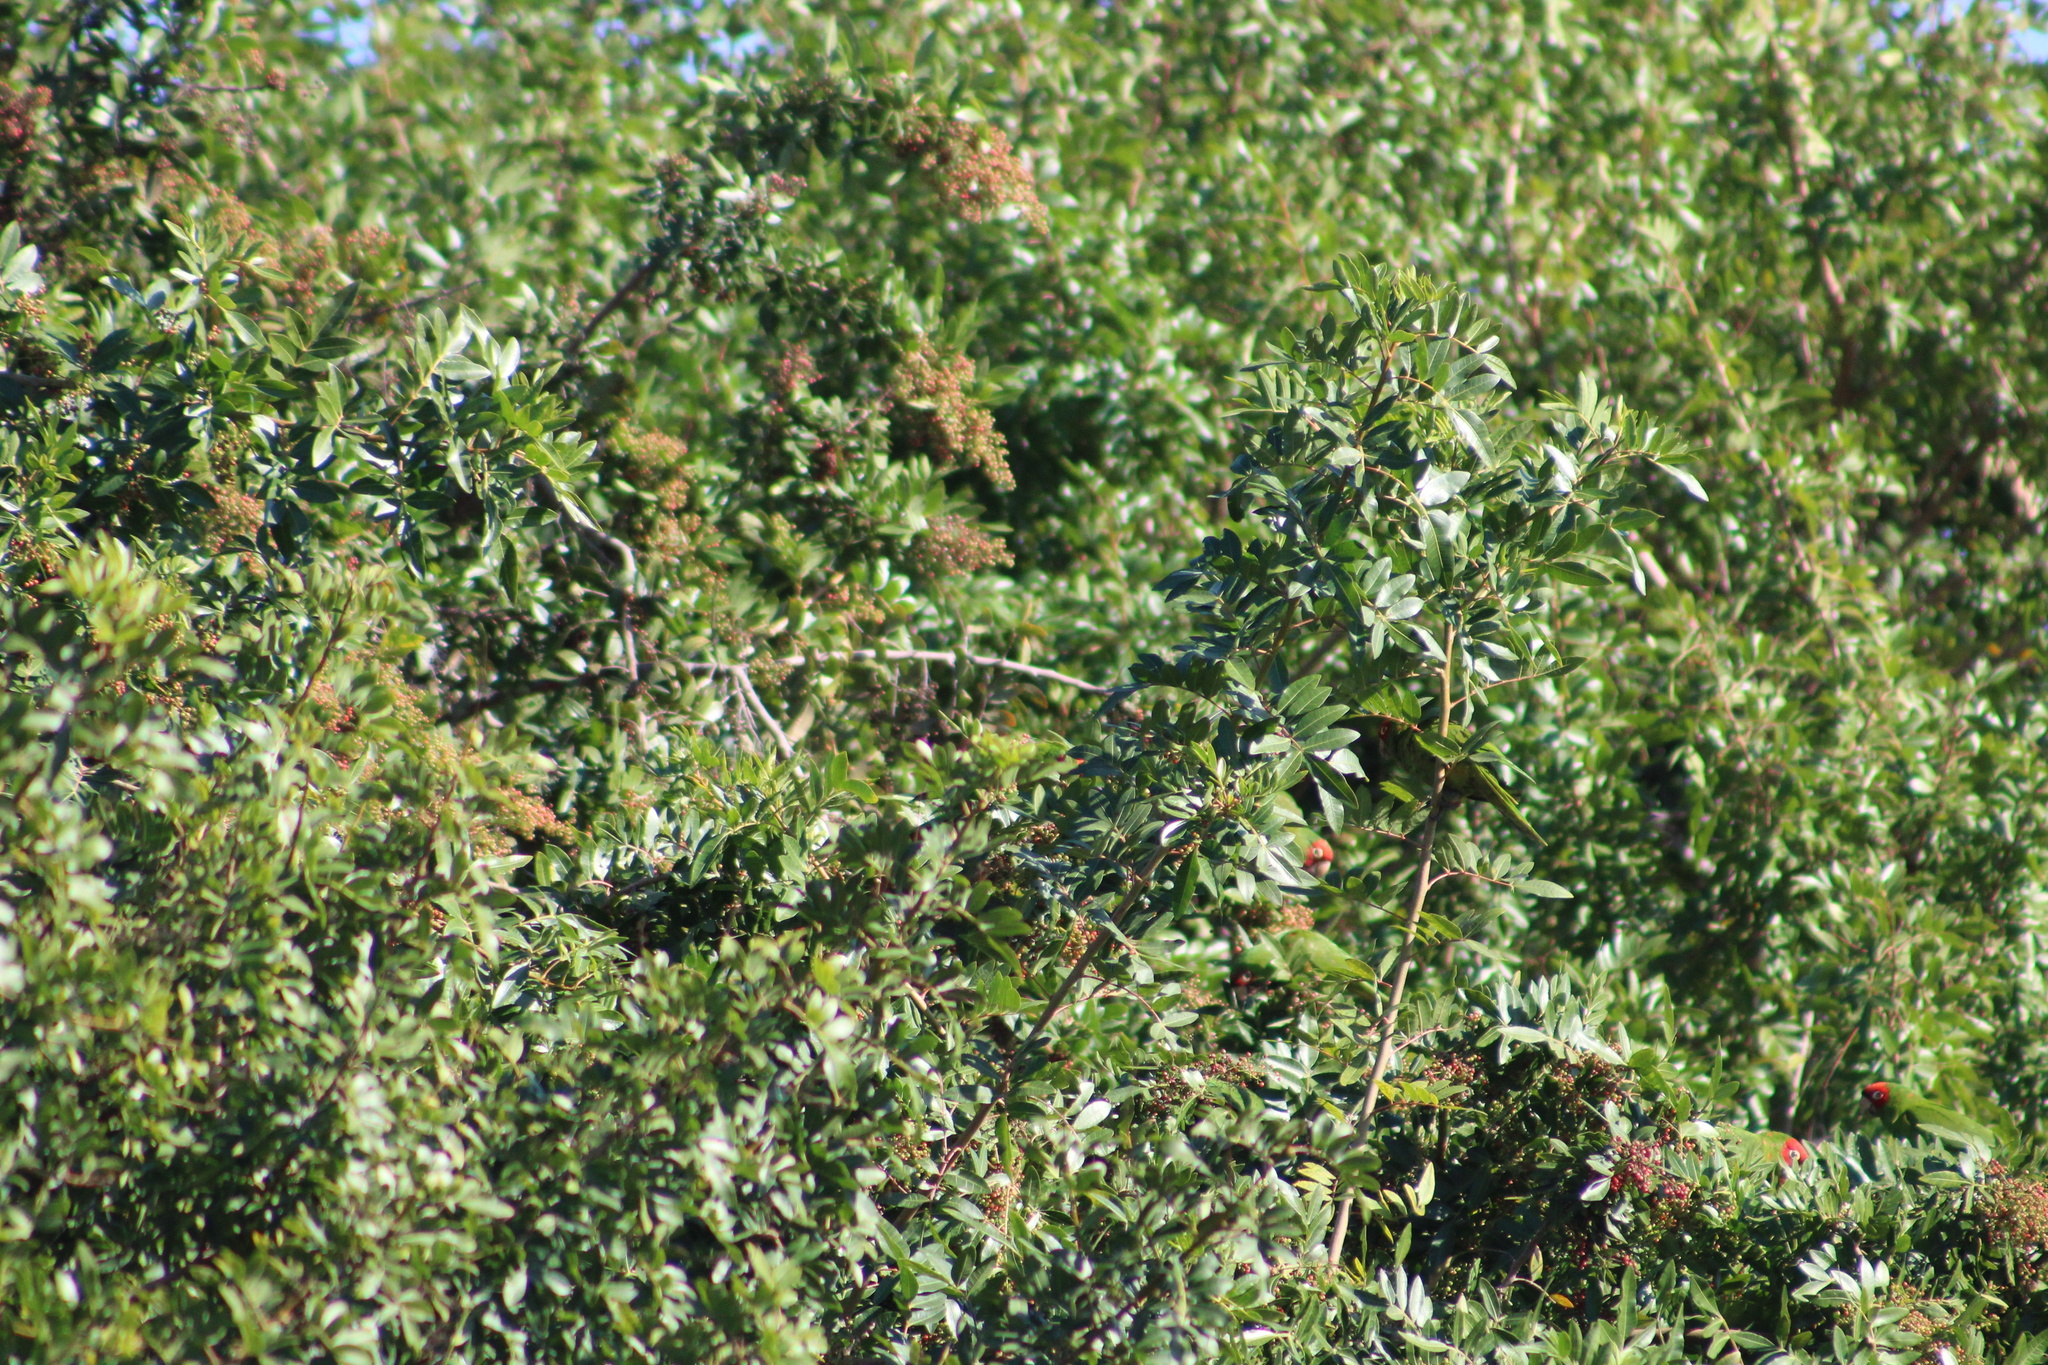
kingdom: Animalia
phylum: Chordata
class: Aves
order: Psittaciformes
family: Psittacidae
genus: Aratinga
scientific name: Aratinga erythrogenys
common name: Red-masked parakeet
